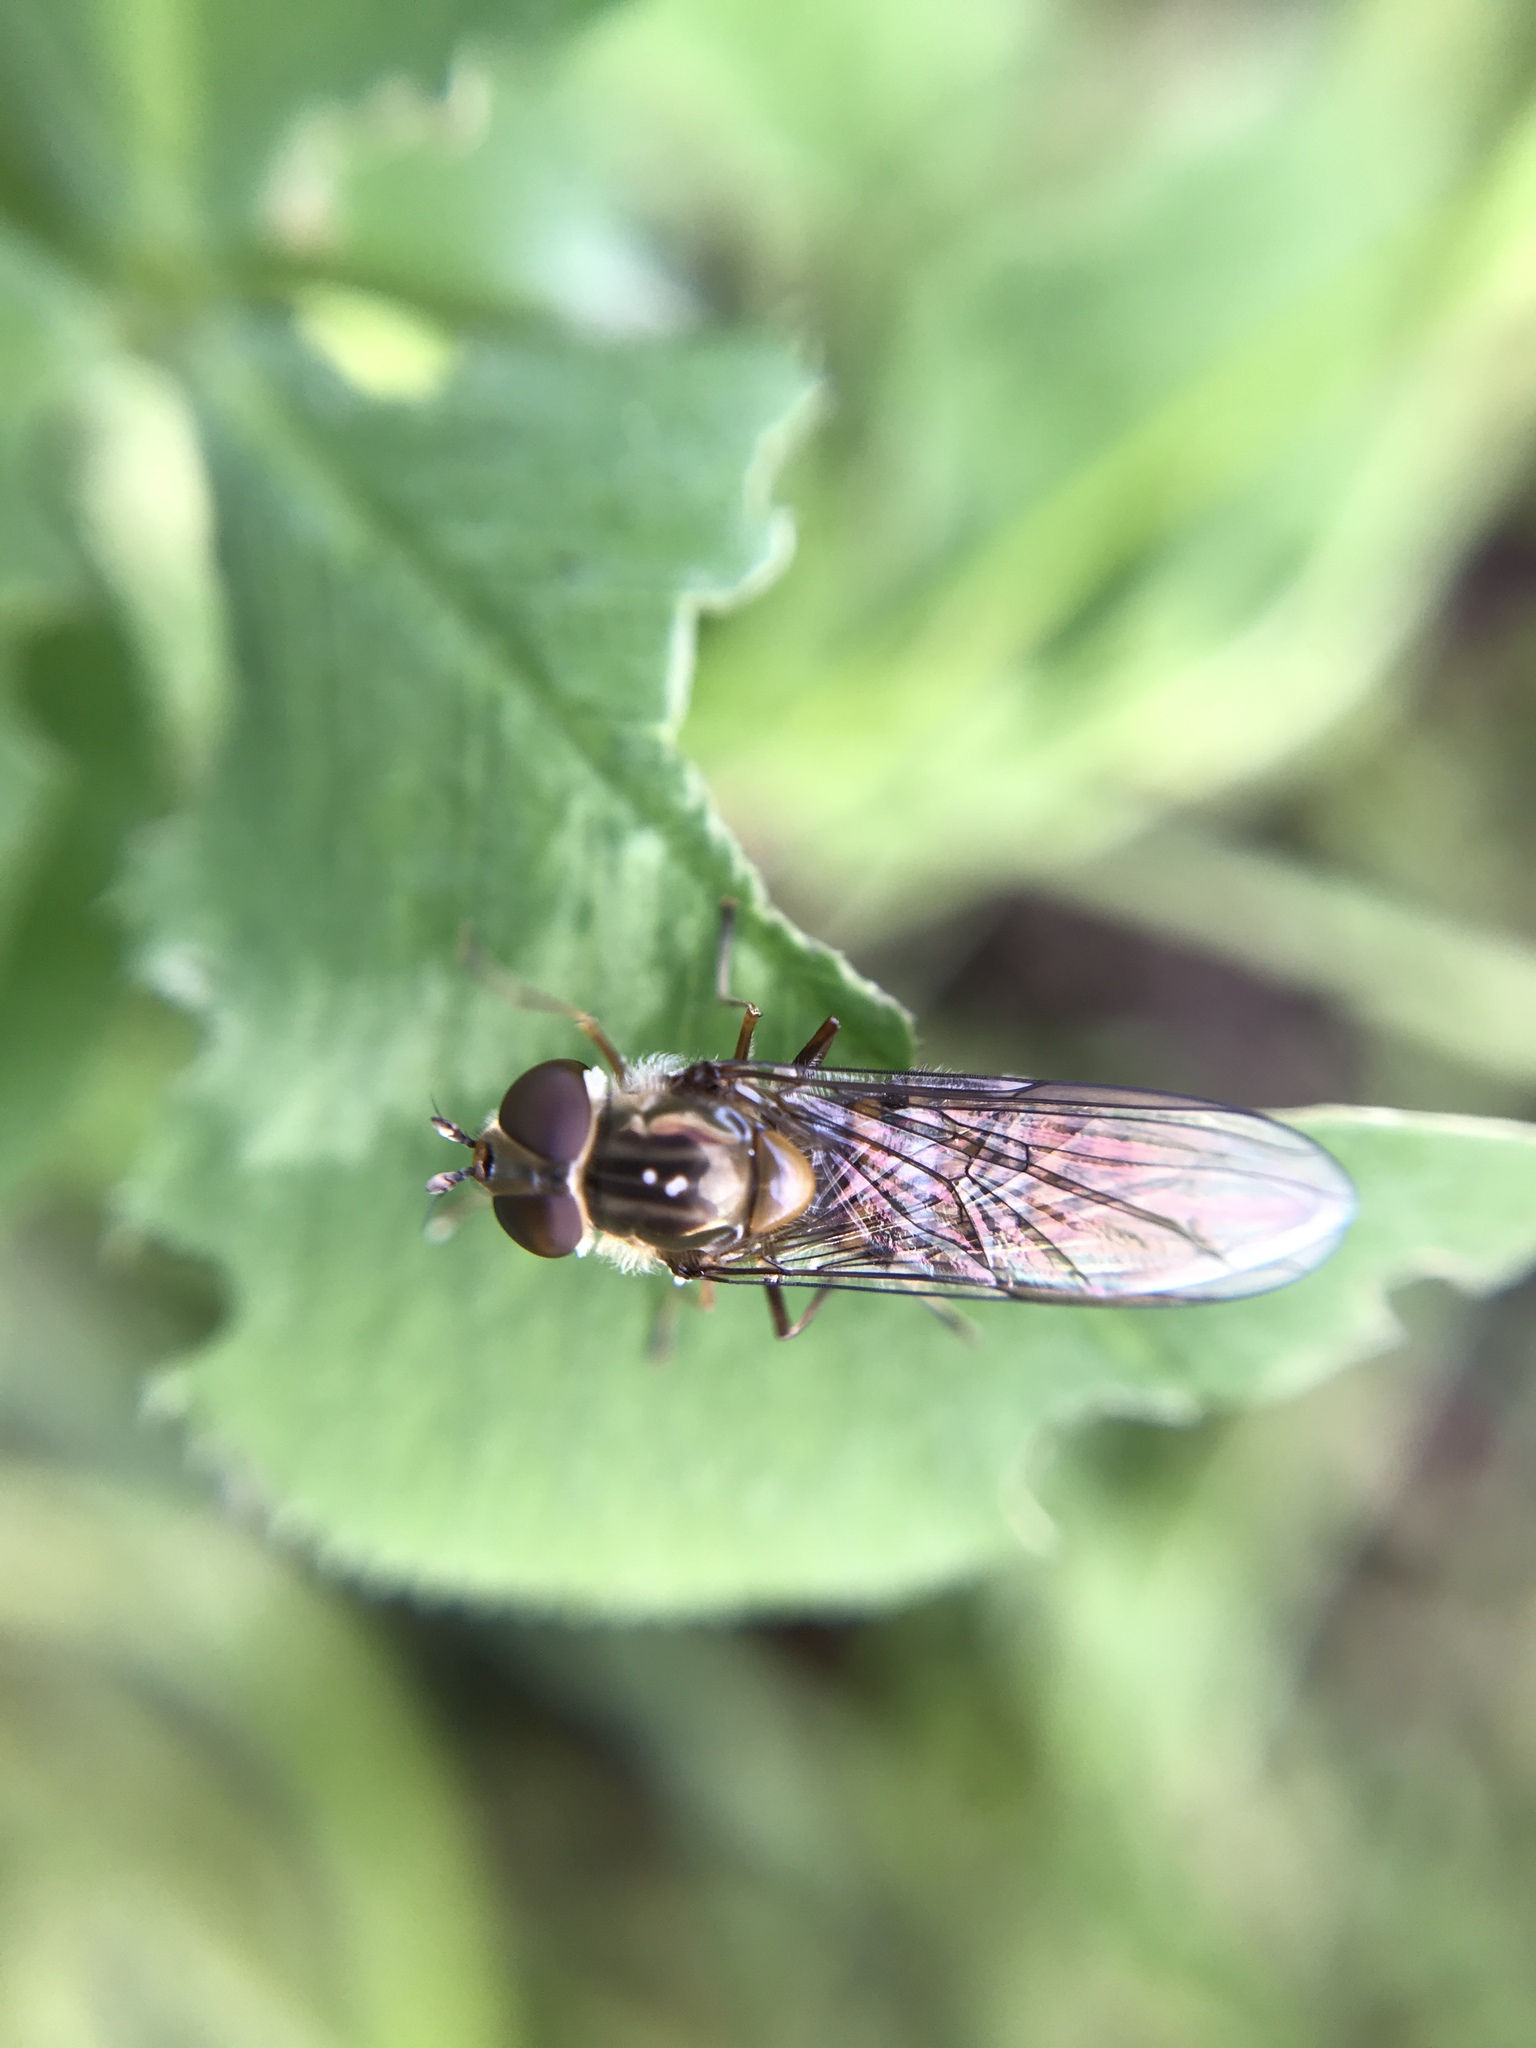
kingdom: Animalia
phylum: Arthropoda
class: Insecta
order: Diptera
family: Syrphidae
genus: Episyrphus
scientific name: Episyrphus balteatus
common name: Marmalade hoverfly
